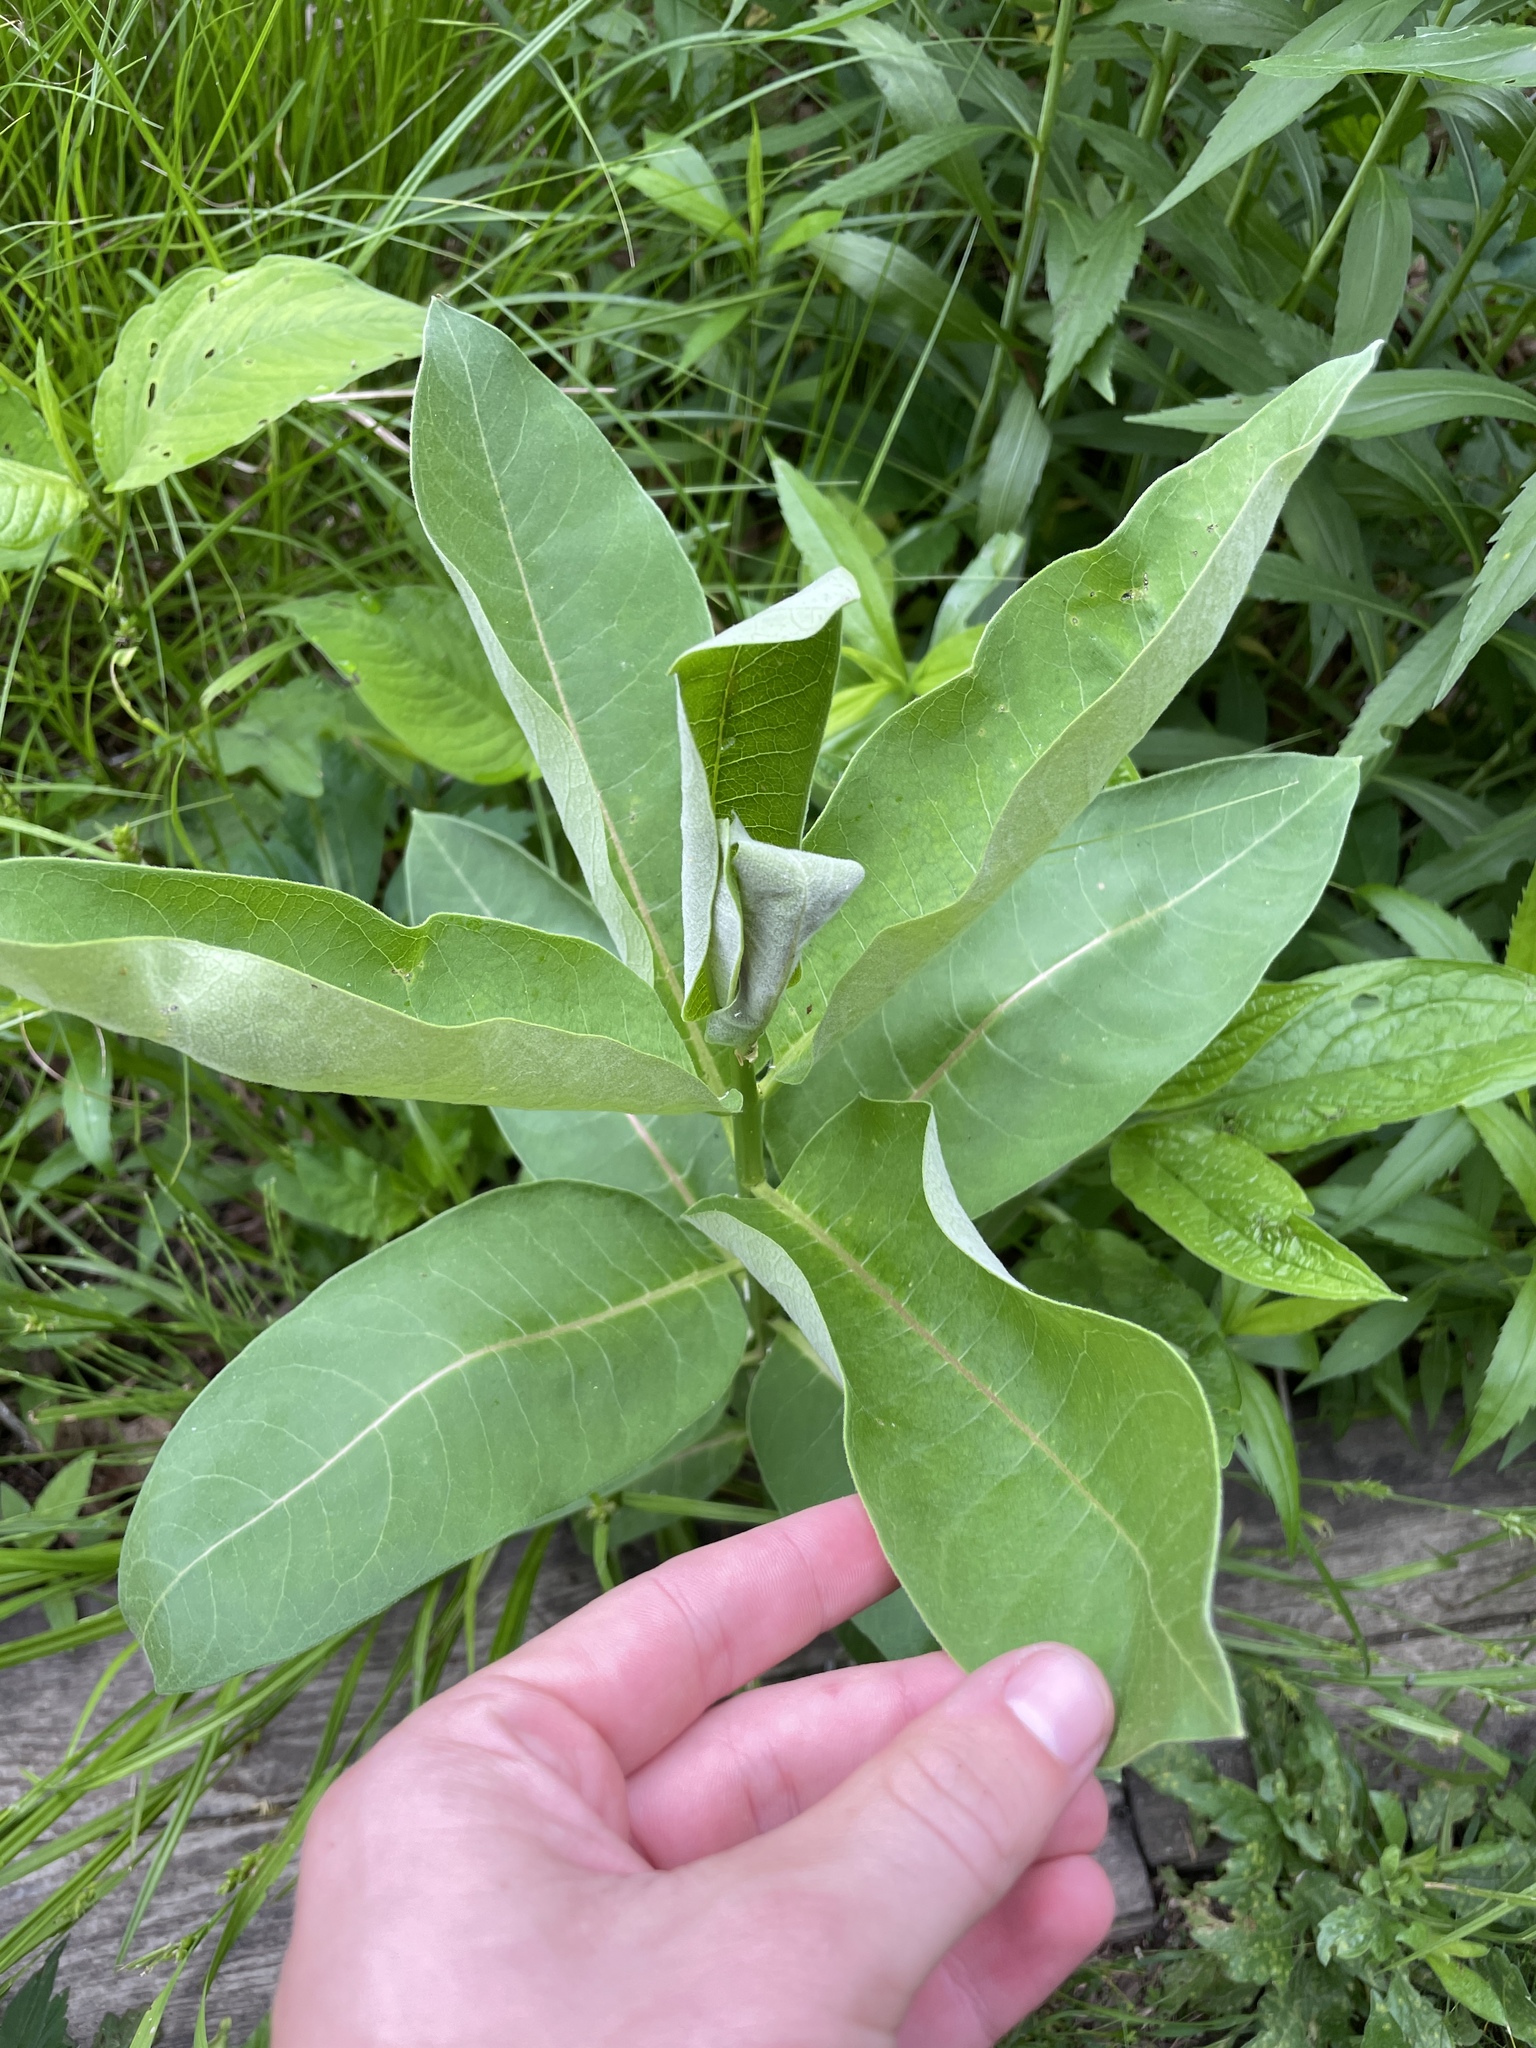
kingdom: Plantae
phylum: Tracheophyta
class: Magnoliopsida
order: Gentianales
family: Apocynaceae
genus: Asclepias
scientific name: Asclepias syriaca
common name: Common milkweed
